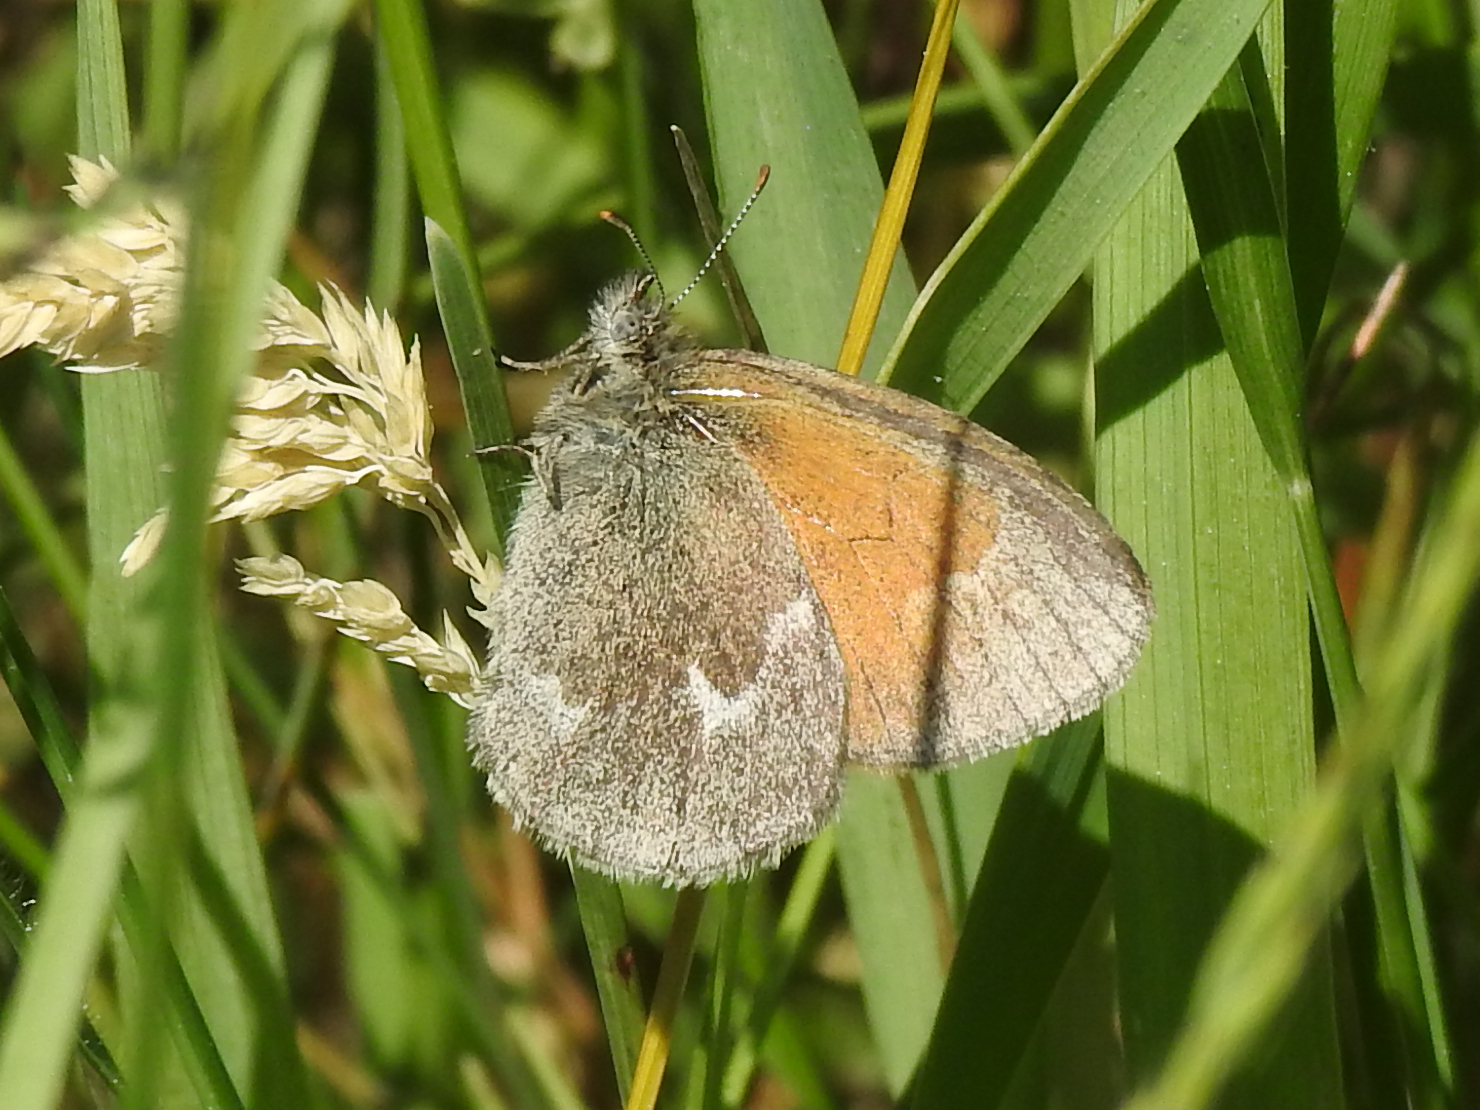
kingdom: Animalia
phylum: Arthropoda
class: Insecta
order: Lepidoptera
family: Nymphalidae
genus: Coenonympha
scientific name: Coenonympha california
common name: Common ringlet
